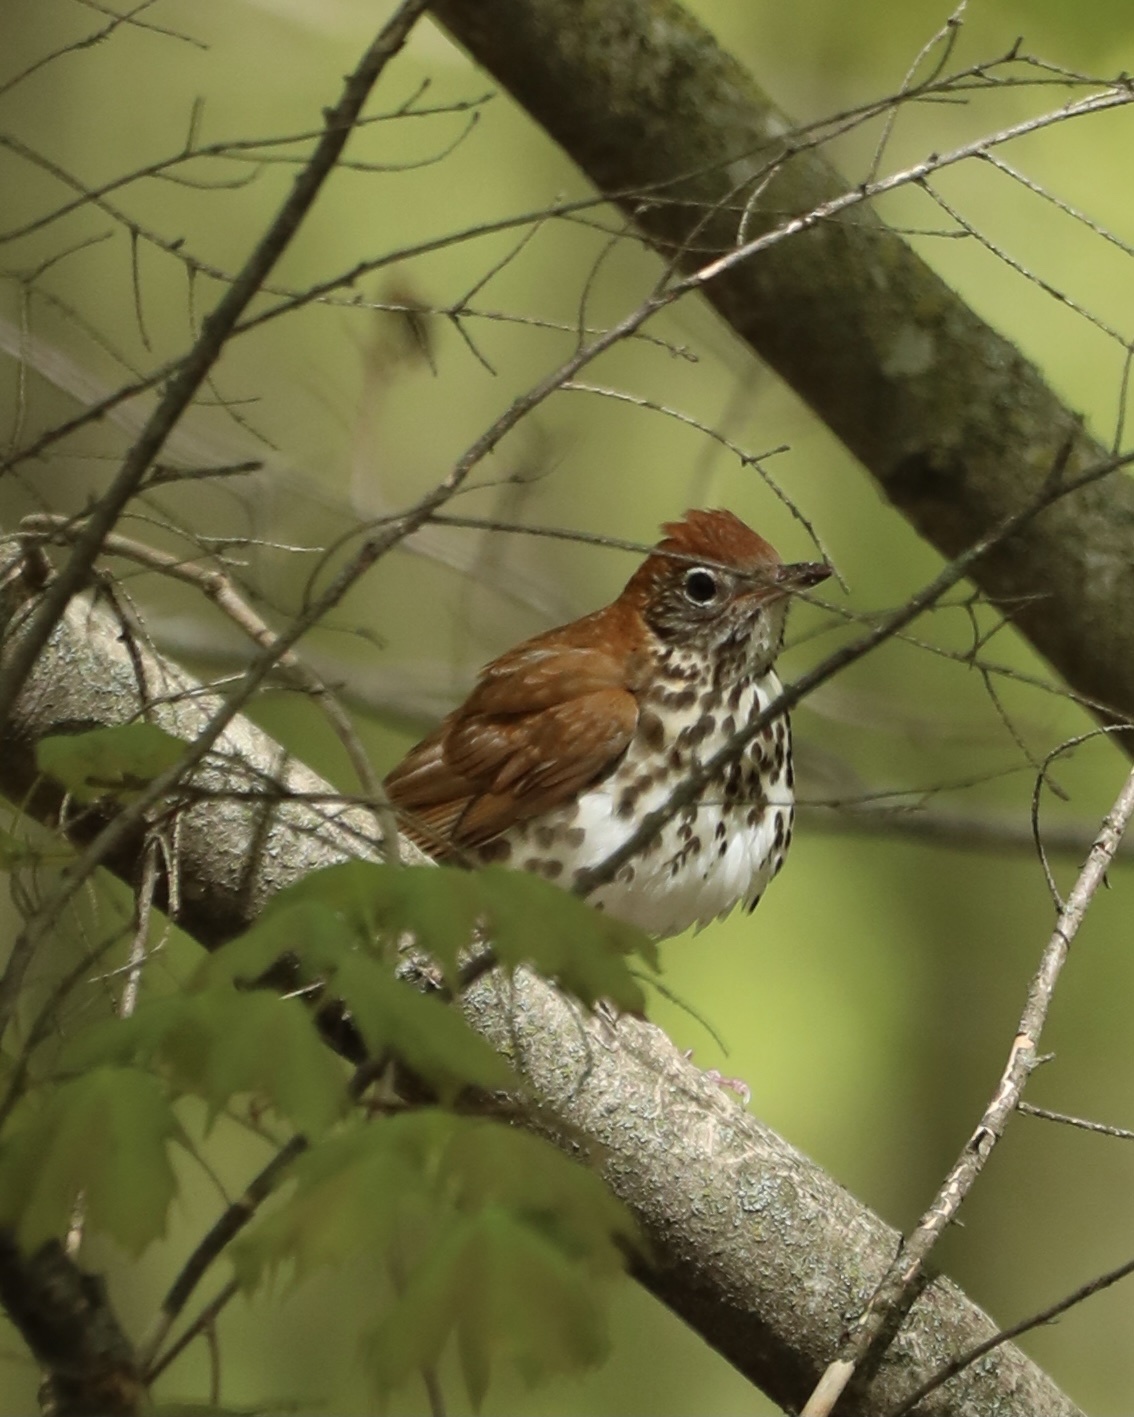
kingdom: Animalia
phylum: Chordata
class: Aves
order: Passeriformes
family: Turdidae
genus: Hylocichla
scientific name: Hylocichla mustelina
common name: Wood thrush
